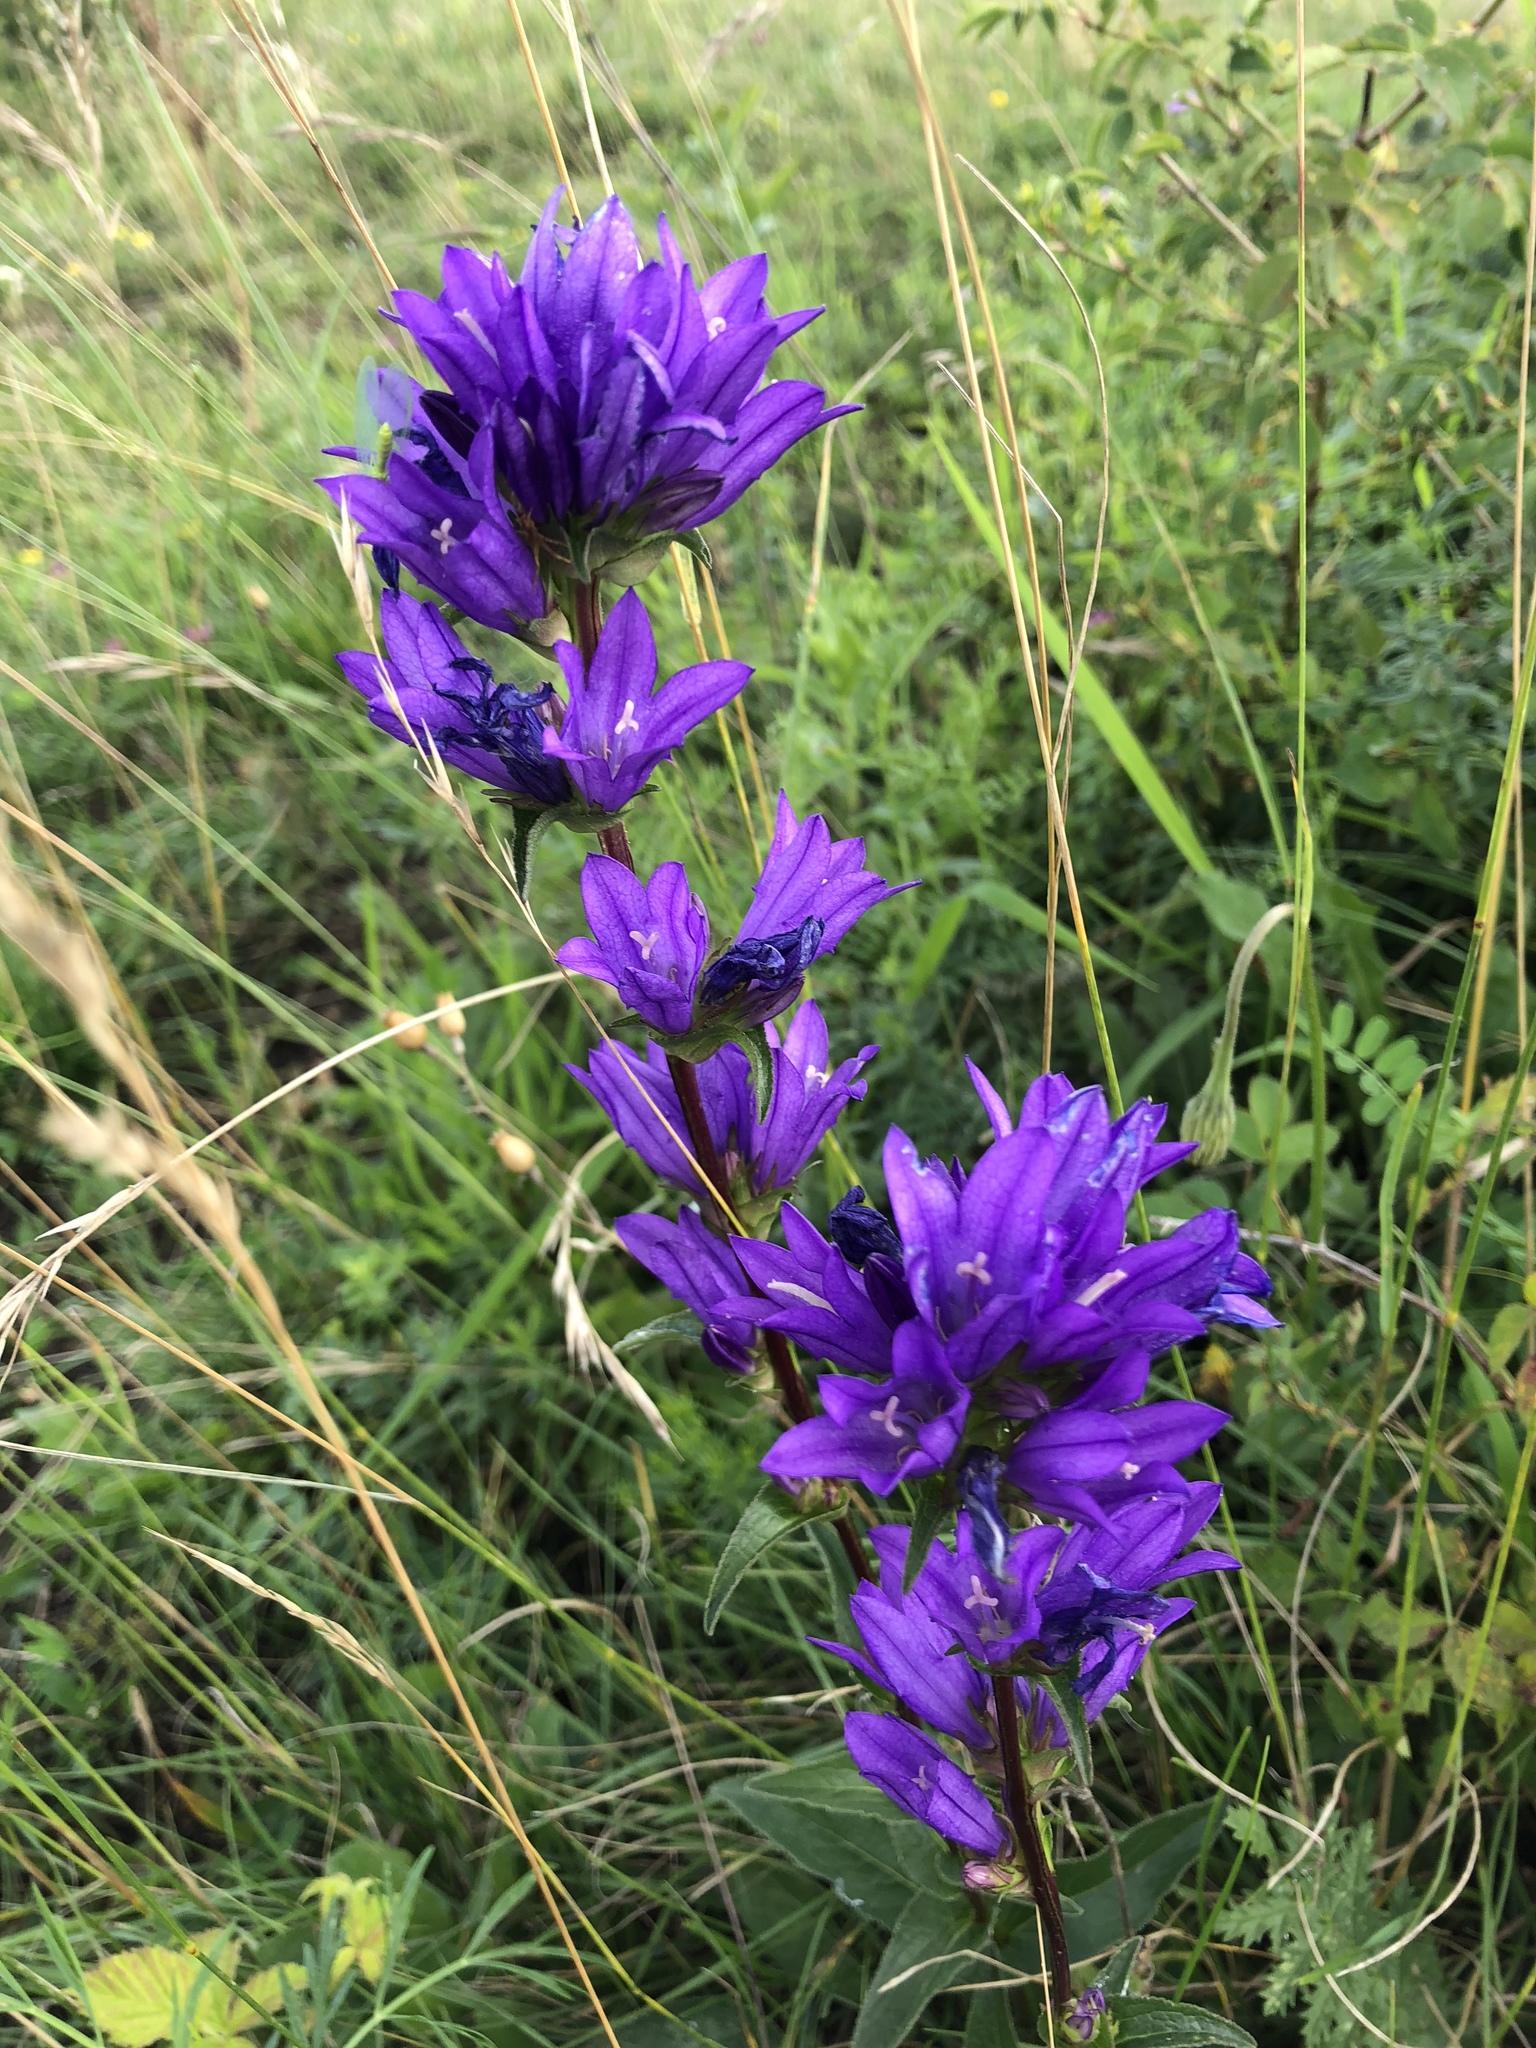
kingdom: Plantae
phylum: Tracheophyta
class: Magnoliopsida
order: Asterales
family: Campanulaceae
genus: Campanula
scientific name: Campanula glomerata
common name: Clustered bellflower
